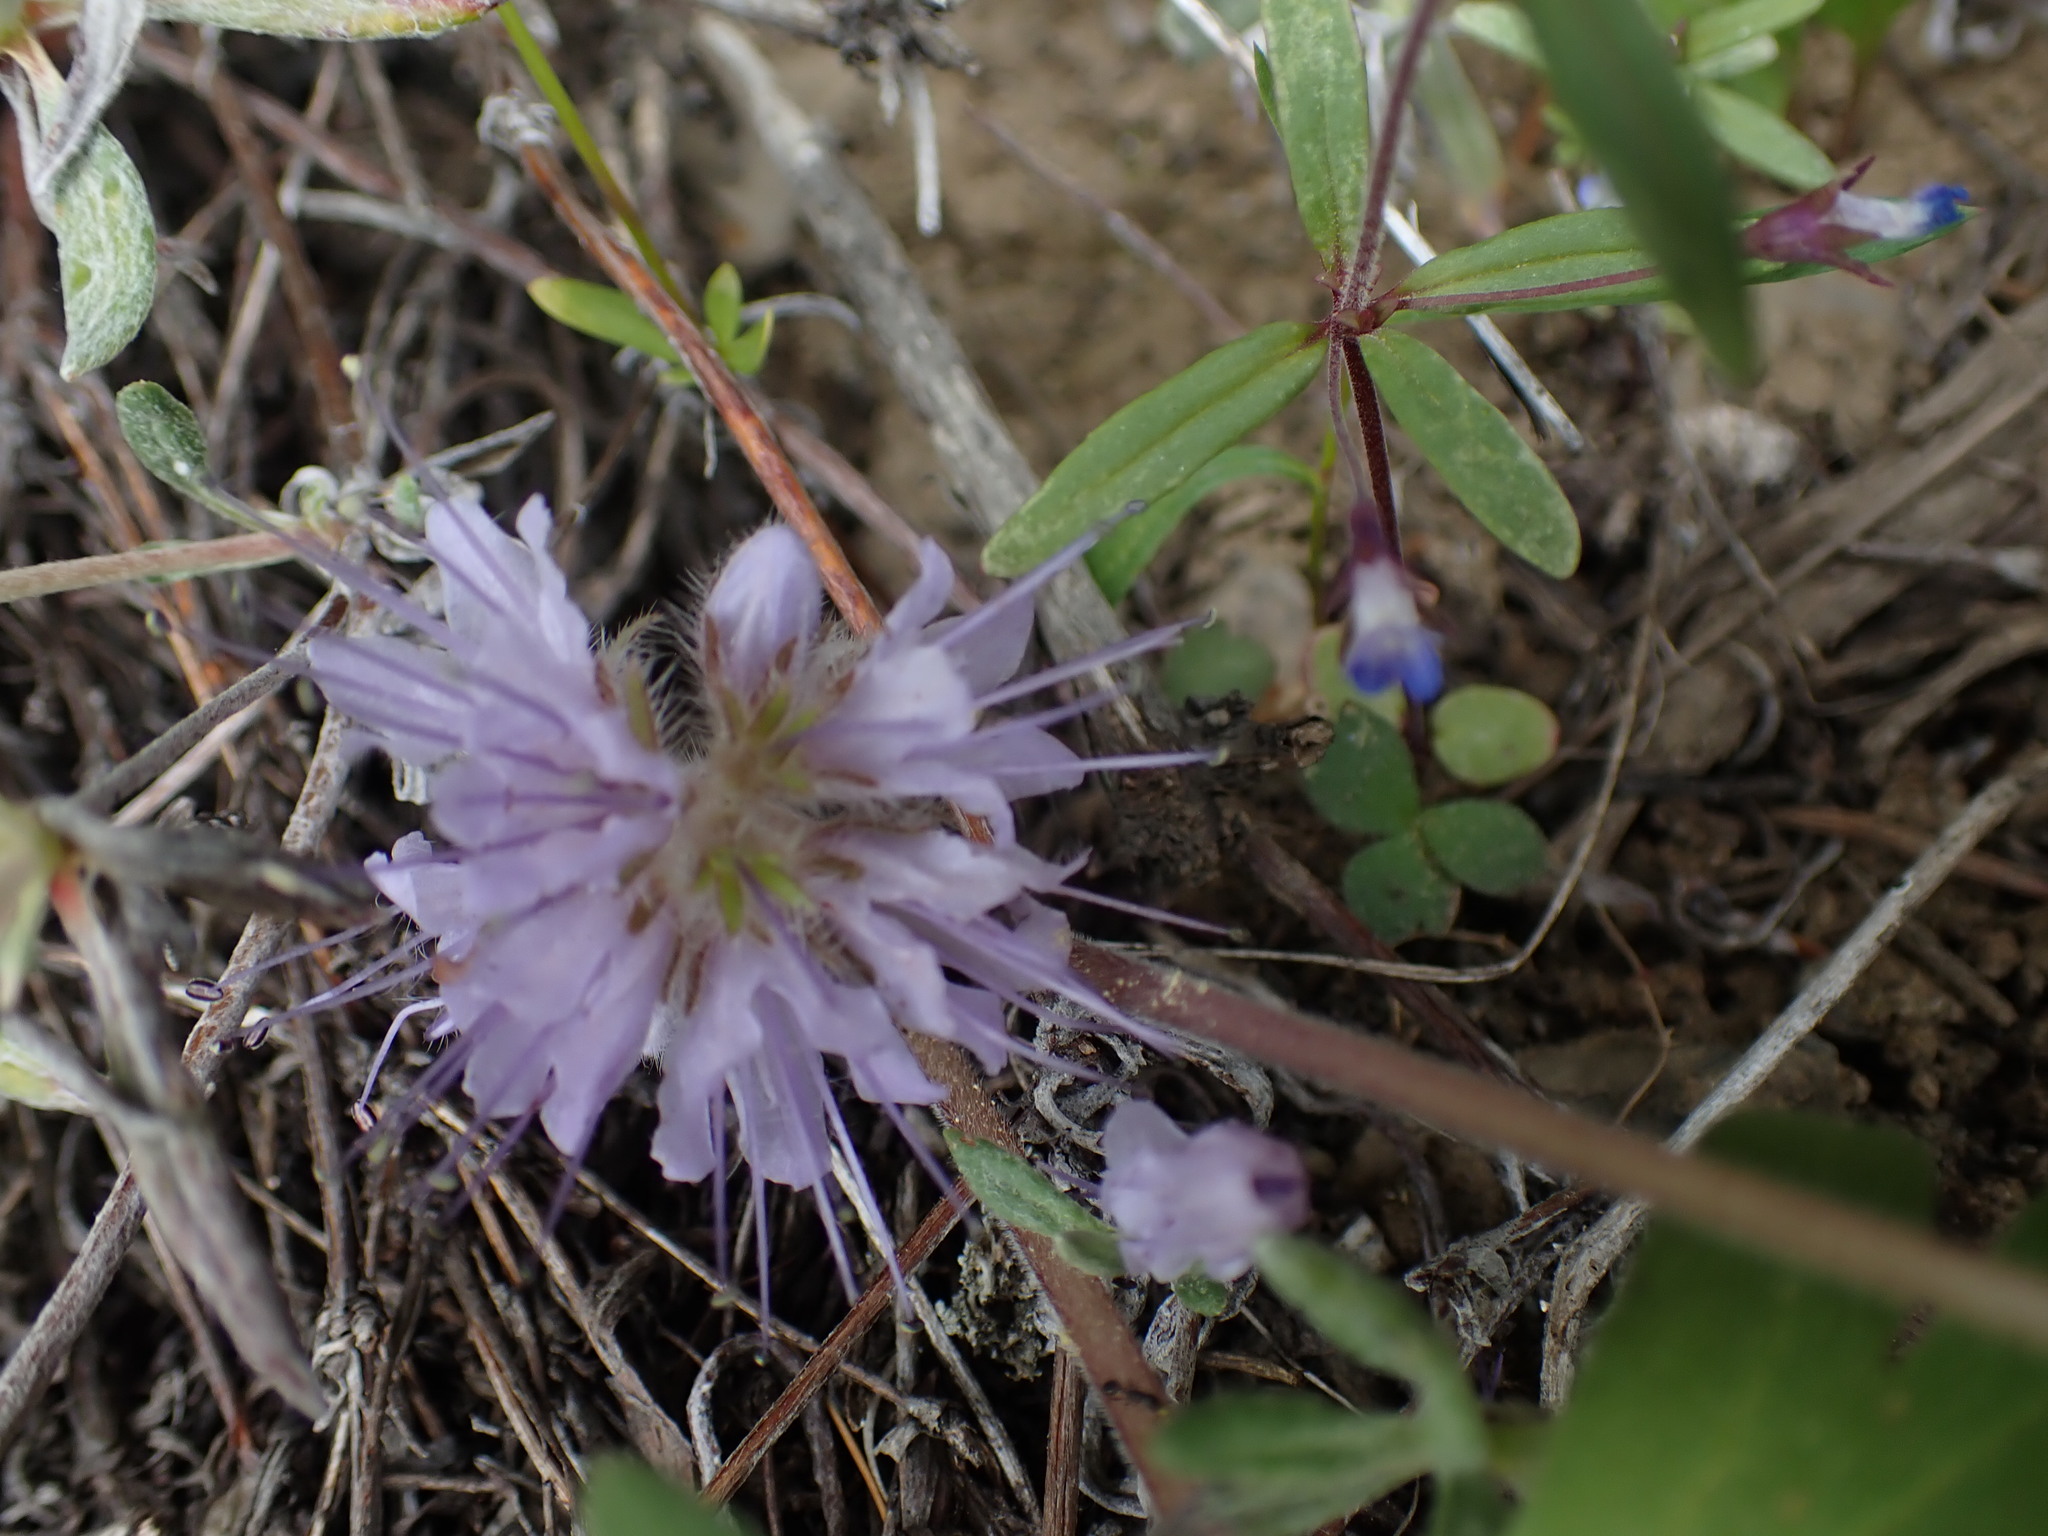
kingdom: Plantae
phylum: Tracheophyta
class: Magnoliopsida
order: Boraginales
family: Hydrophyllaceae
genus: Hydrophyllum
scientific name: Hydrophyllum capitatum
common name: Woollen-breeches
